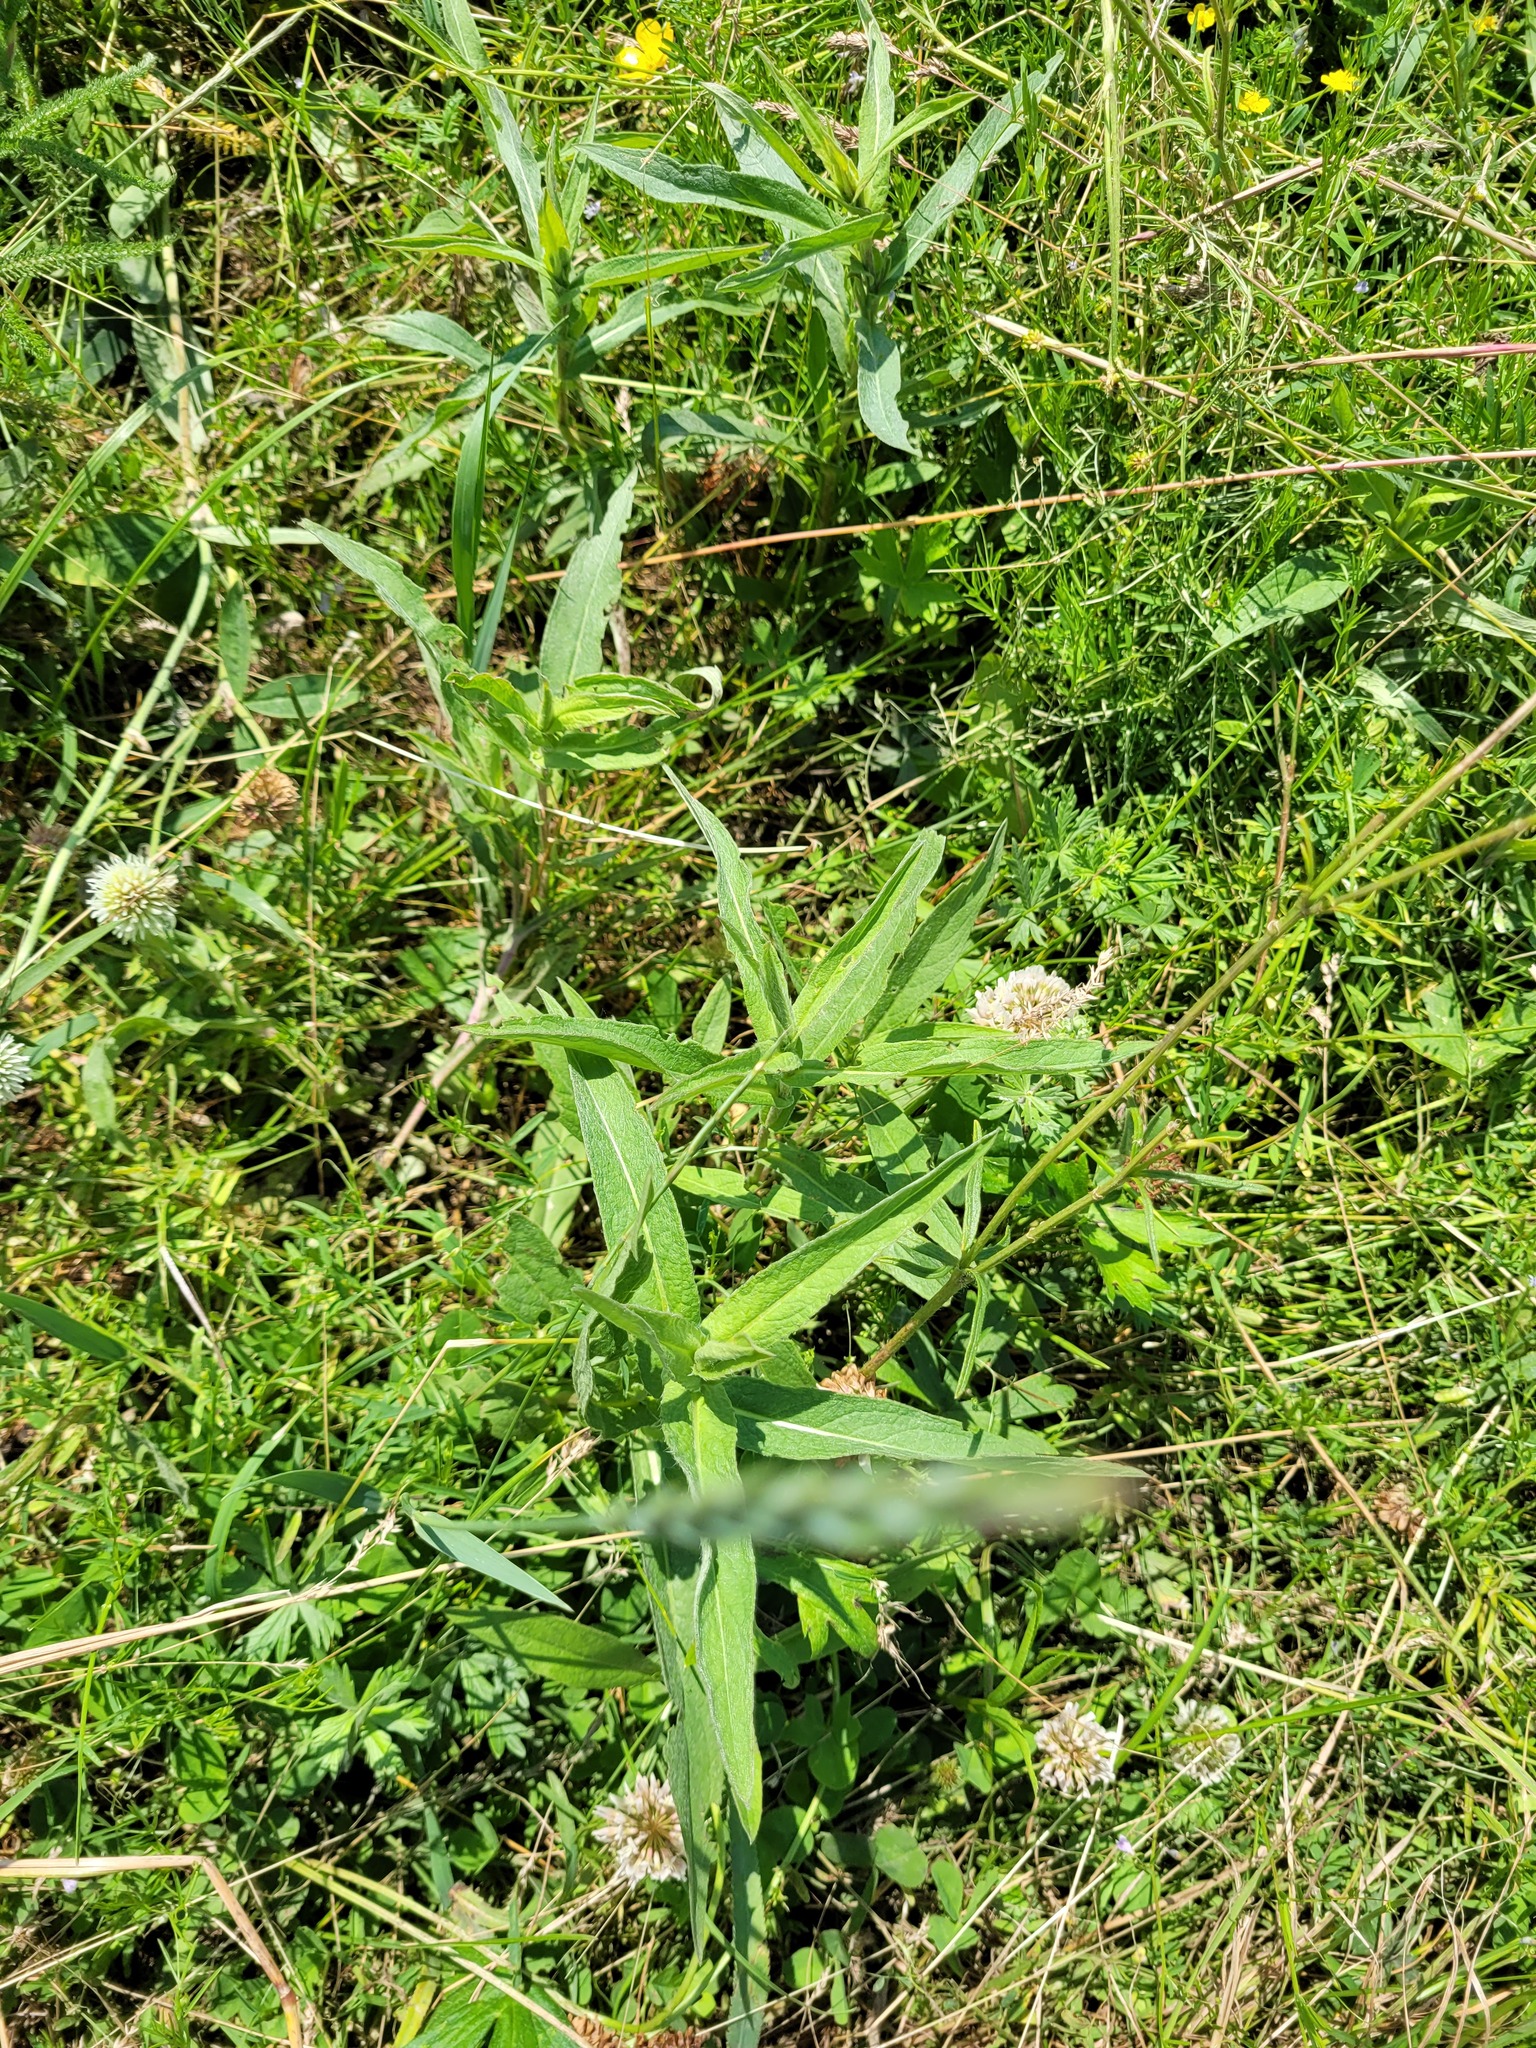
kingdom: Plantae
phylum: Tracheophyta
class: Magnoliopsida
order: Asterales
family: Asteraceae
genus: Pentanema
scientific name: Pentanema britannicum
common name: British elecampane
